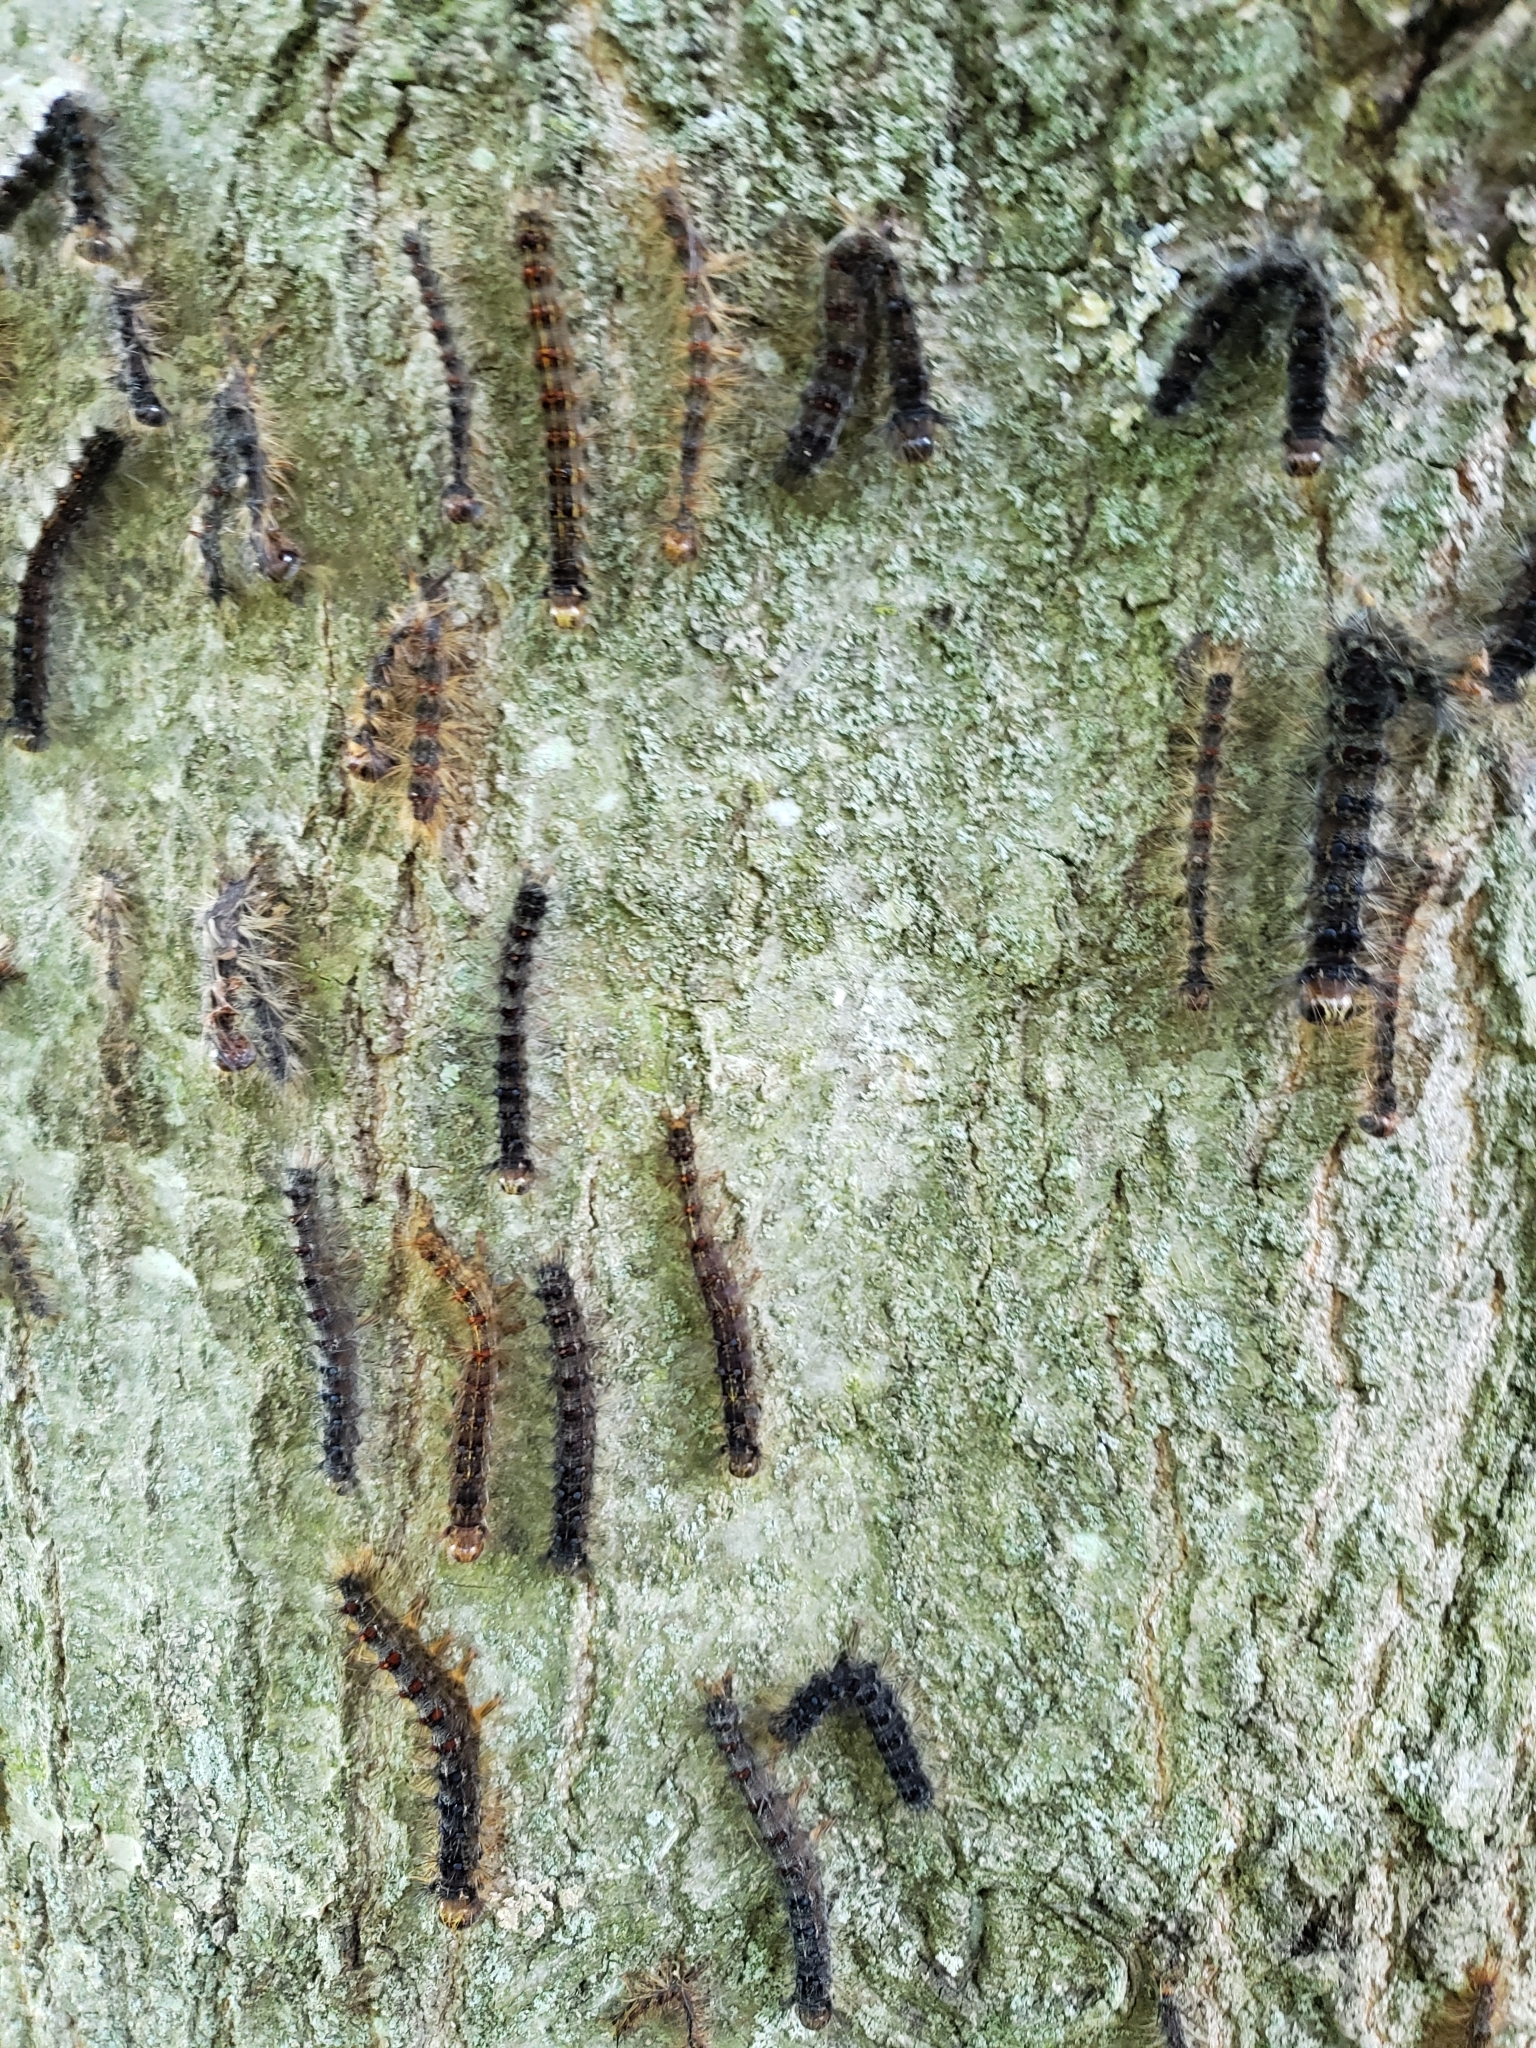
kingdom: Animalia
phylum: Arthropoda
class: Insecta
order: Lepidoptera
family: Erebidae
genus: Lymantria
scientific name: Lymantria dispar
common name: Gypsy moth
